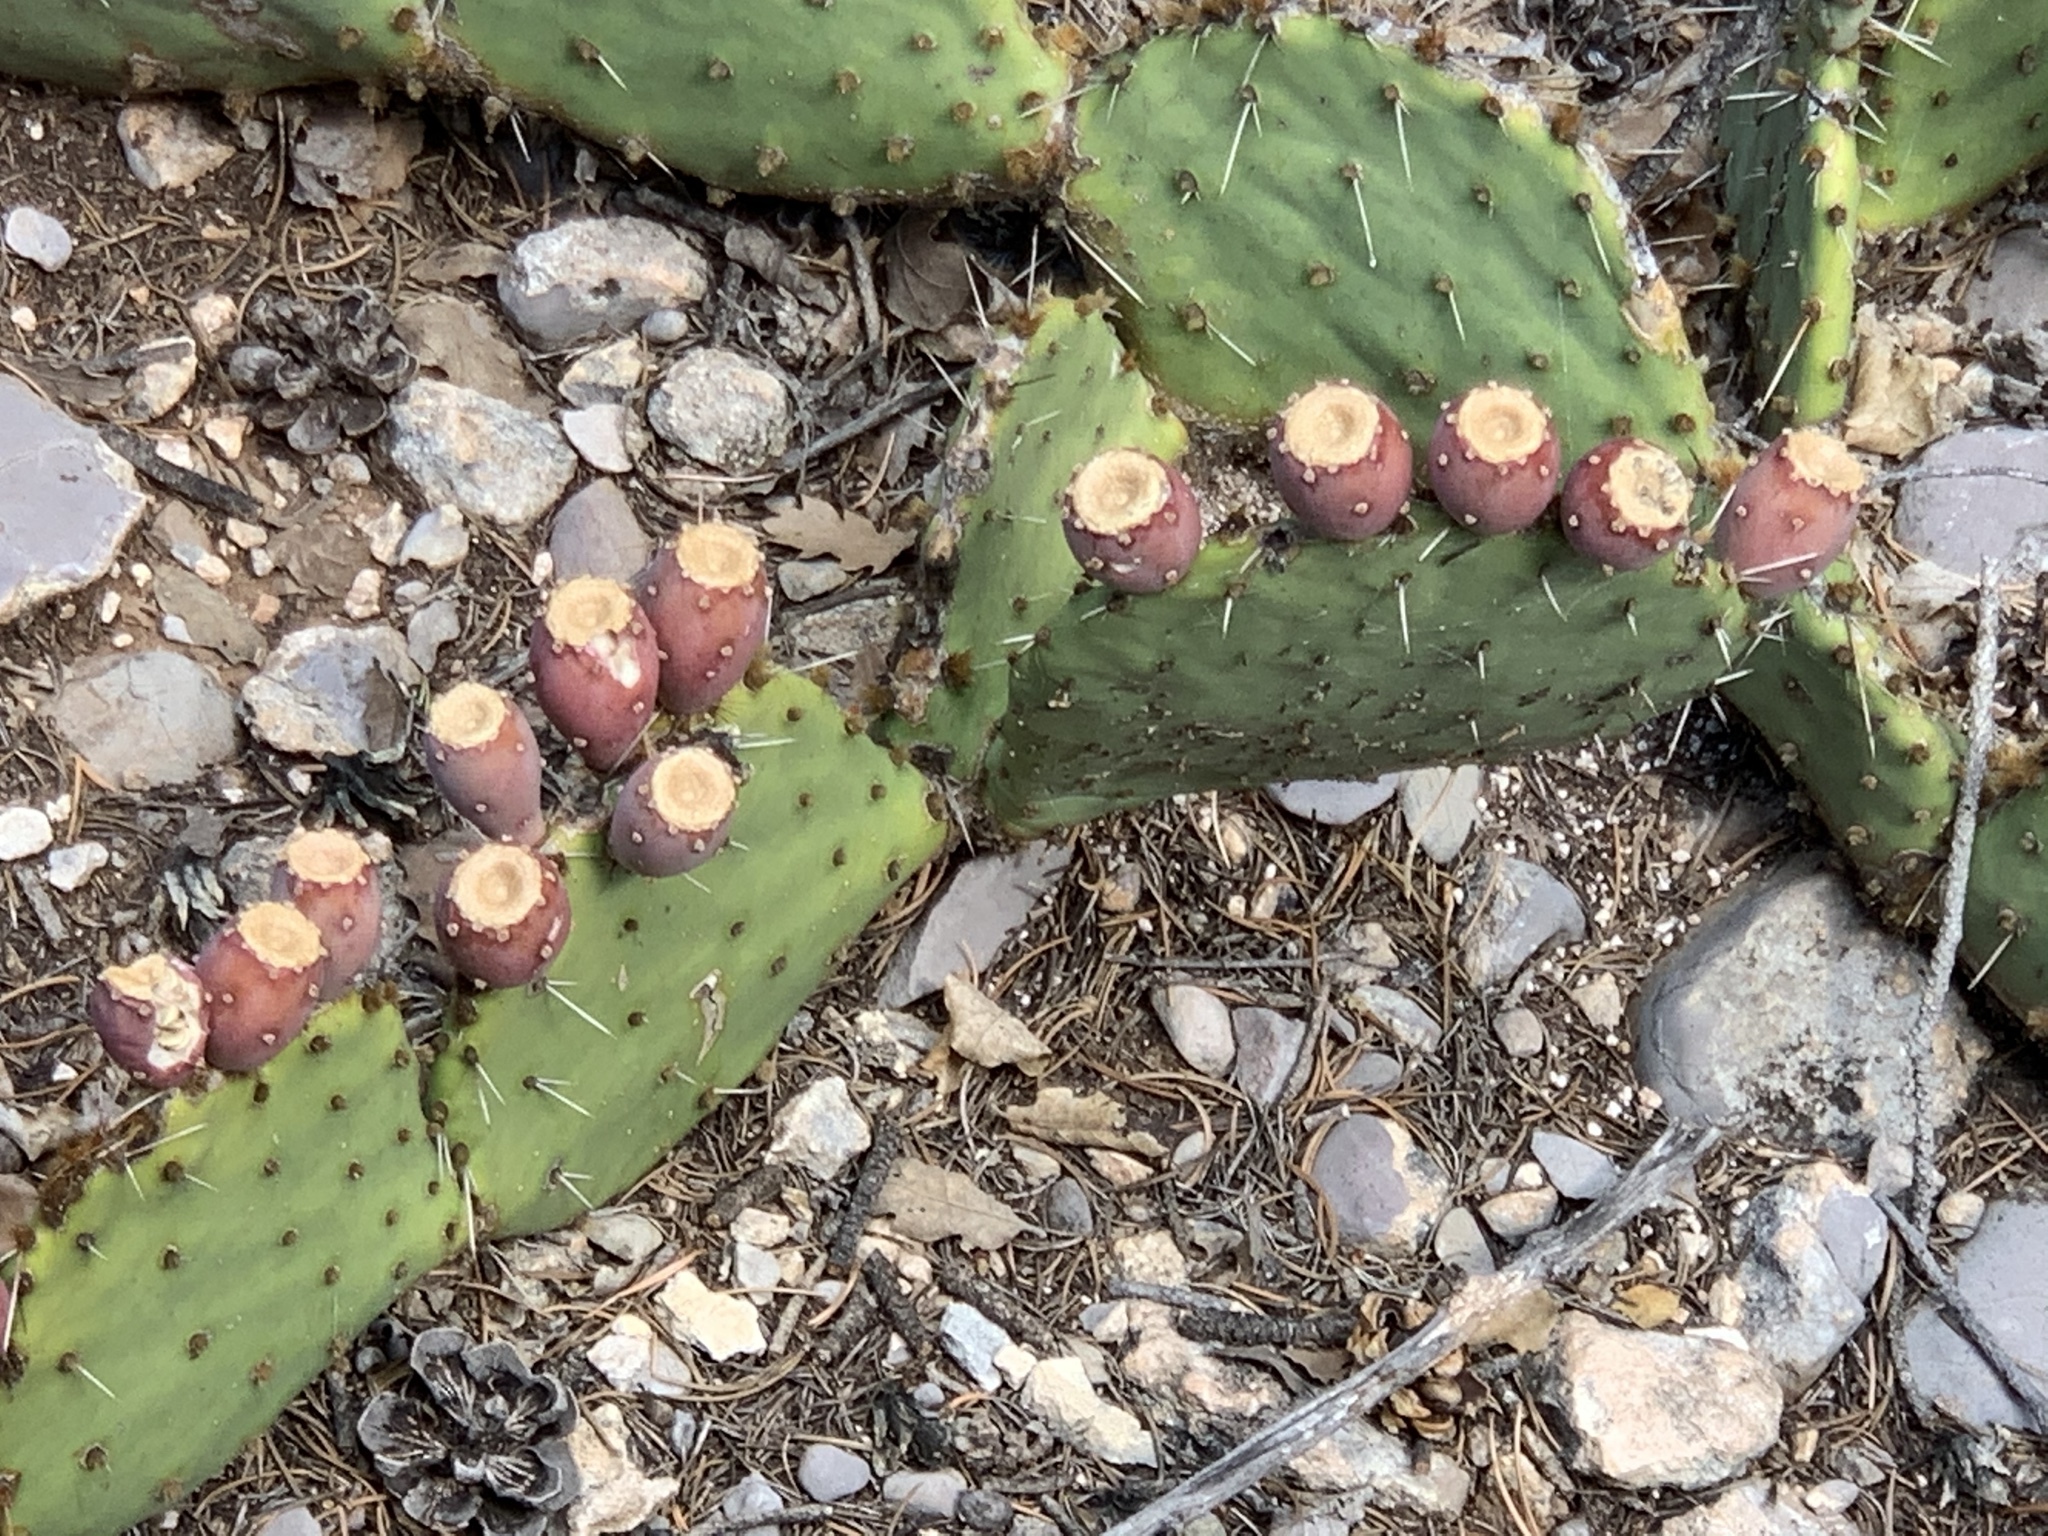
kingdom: Plantae
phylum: Tracheophyta
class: Magnoliopsida
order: Caryophyllales
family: Cactaceae
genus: Opuntia
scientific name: Opuntia phaeacantha
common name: New mexico prickly-pear
